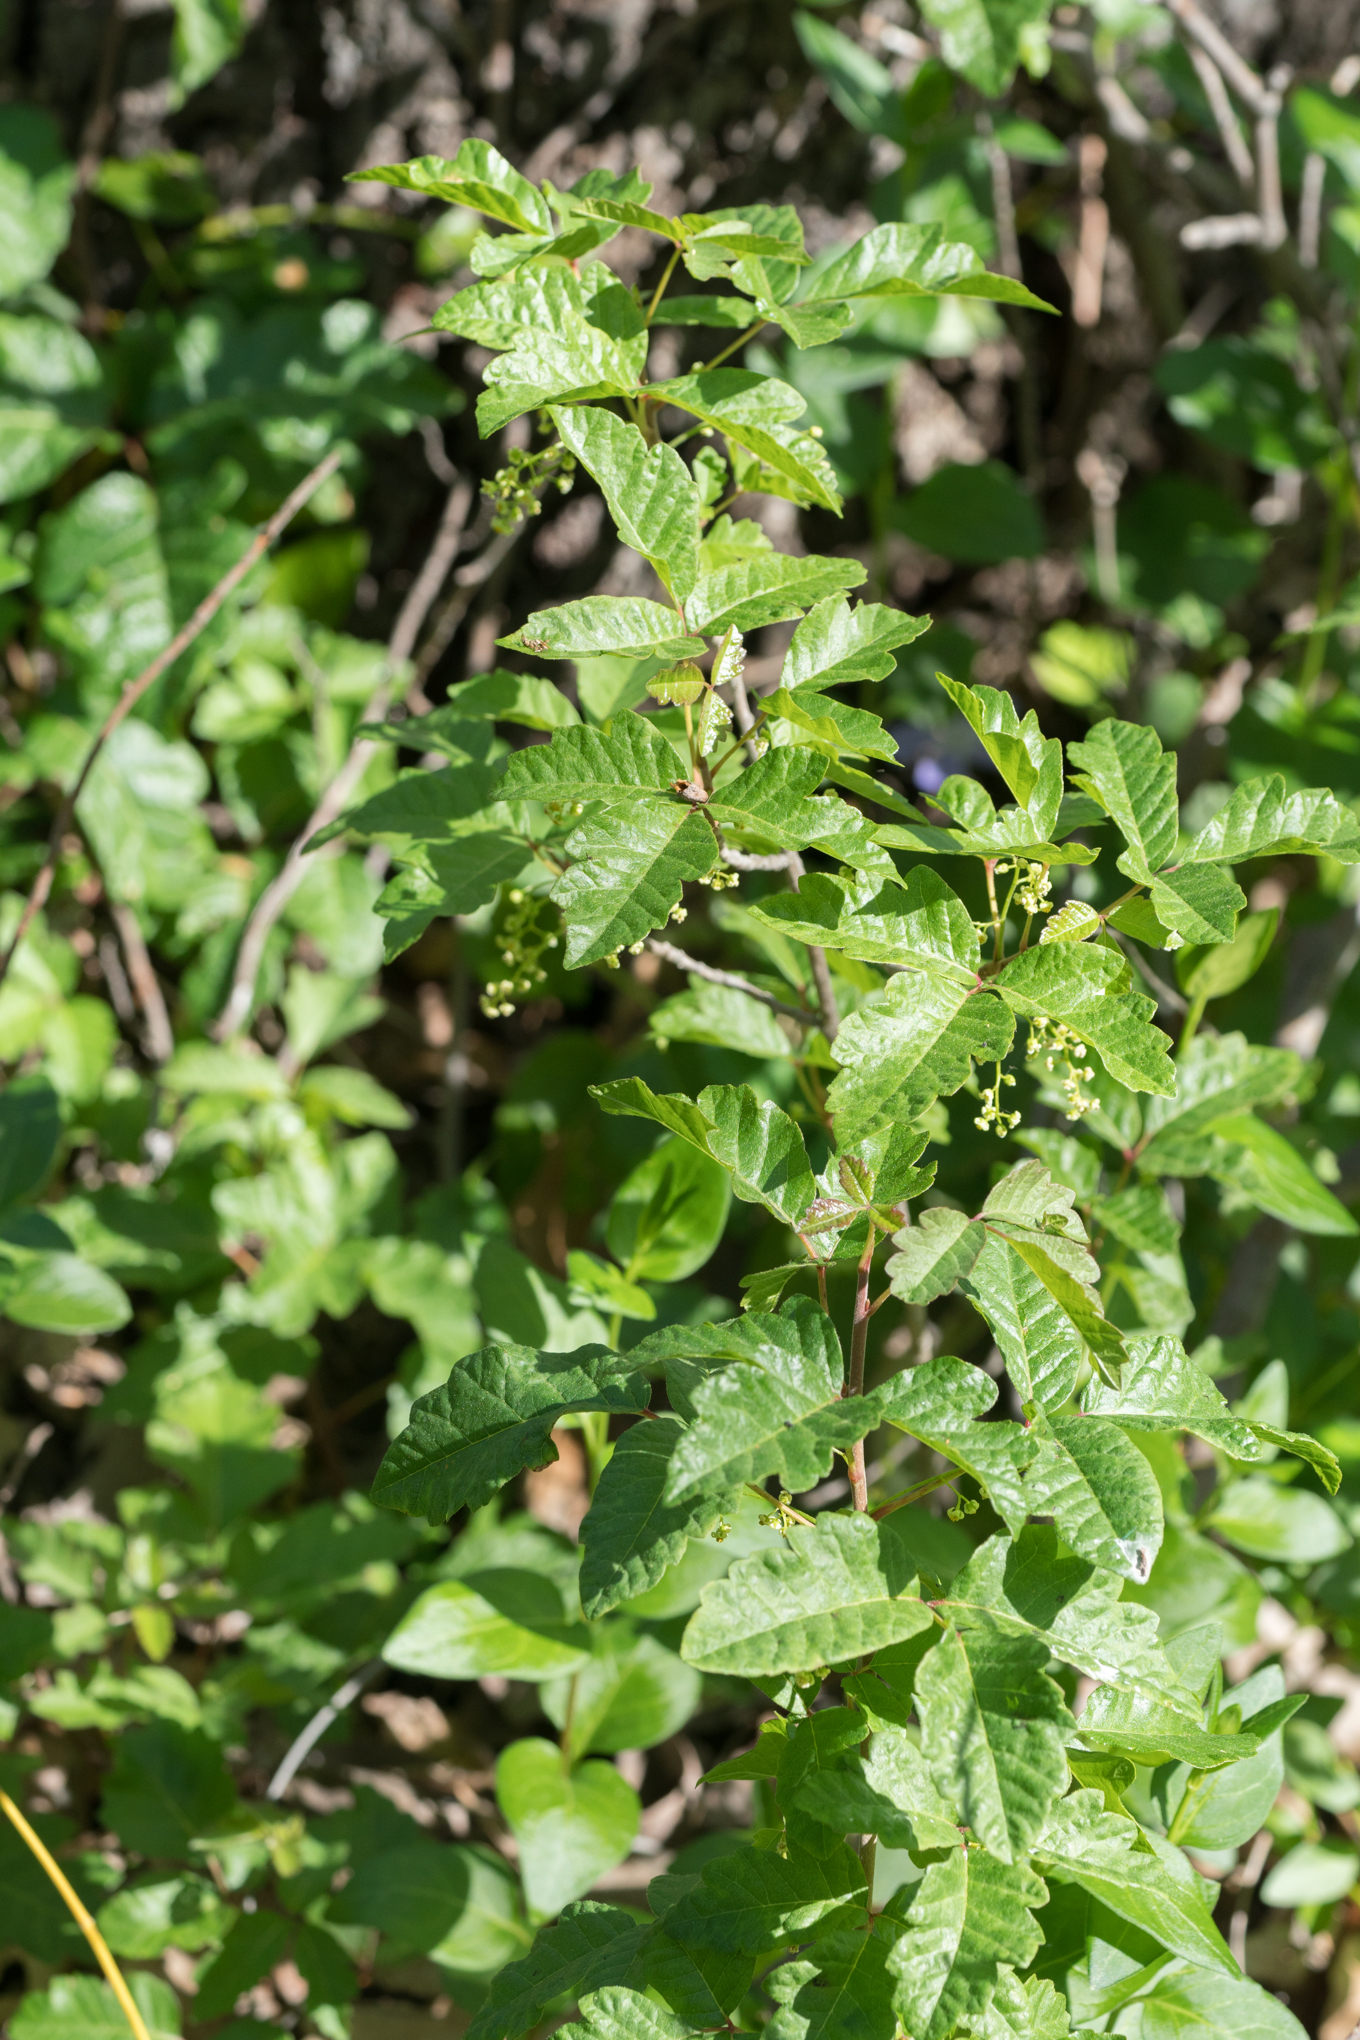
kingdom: Plantae
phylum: Tracheophyta
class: Magnoliopsida
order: Sapindales
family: Anacardiaceae
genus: Toxicodendron
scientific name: Toxicodendron diversilobum
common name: Pacific poison-oak
